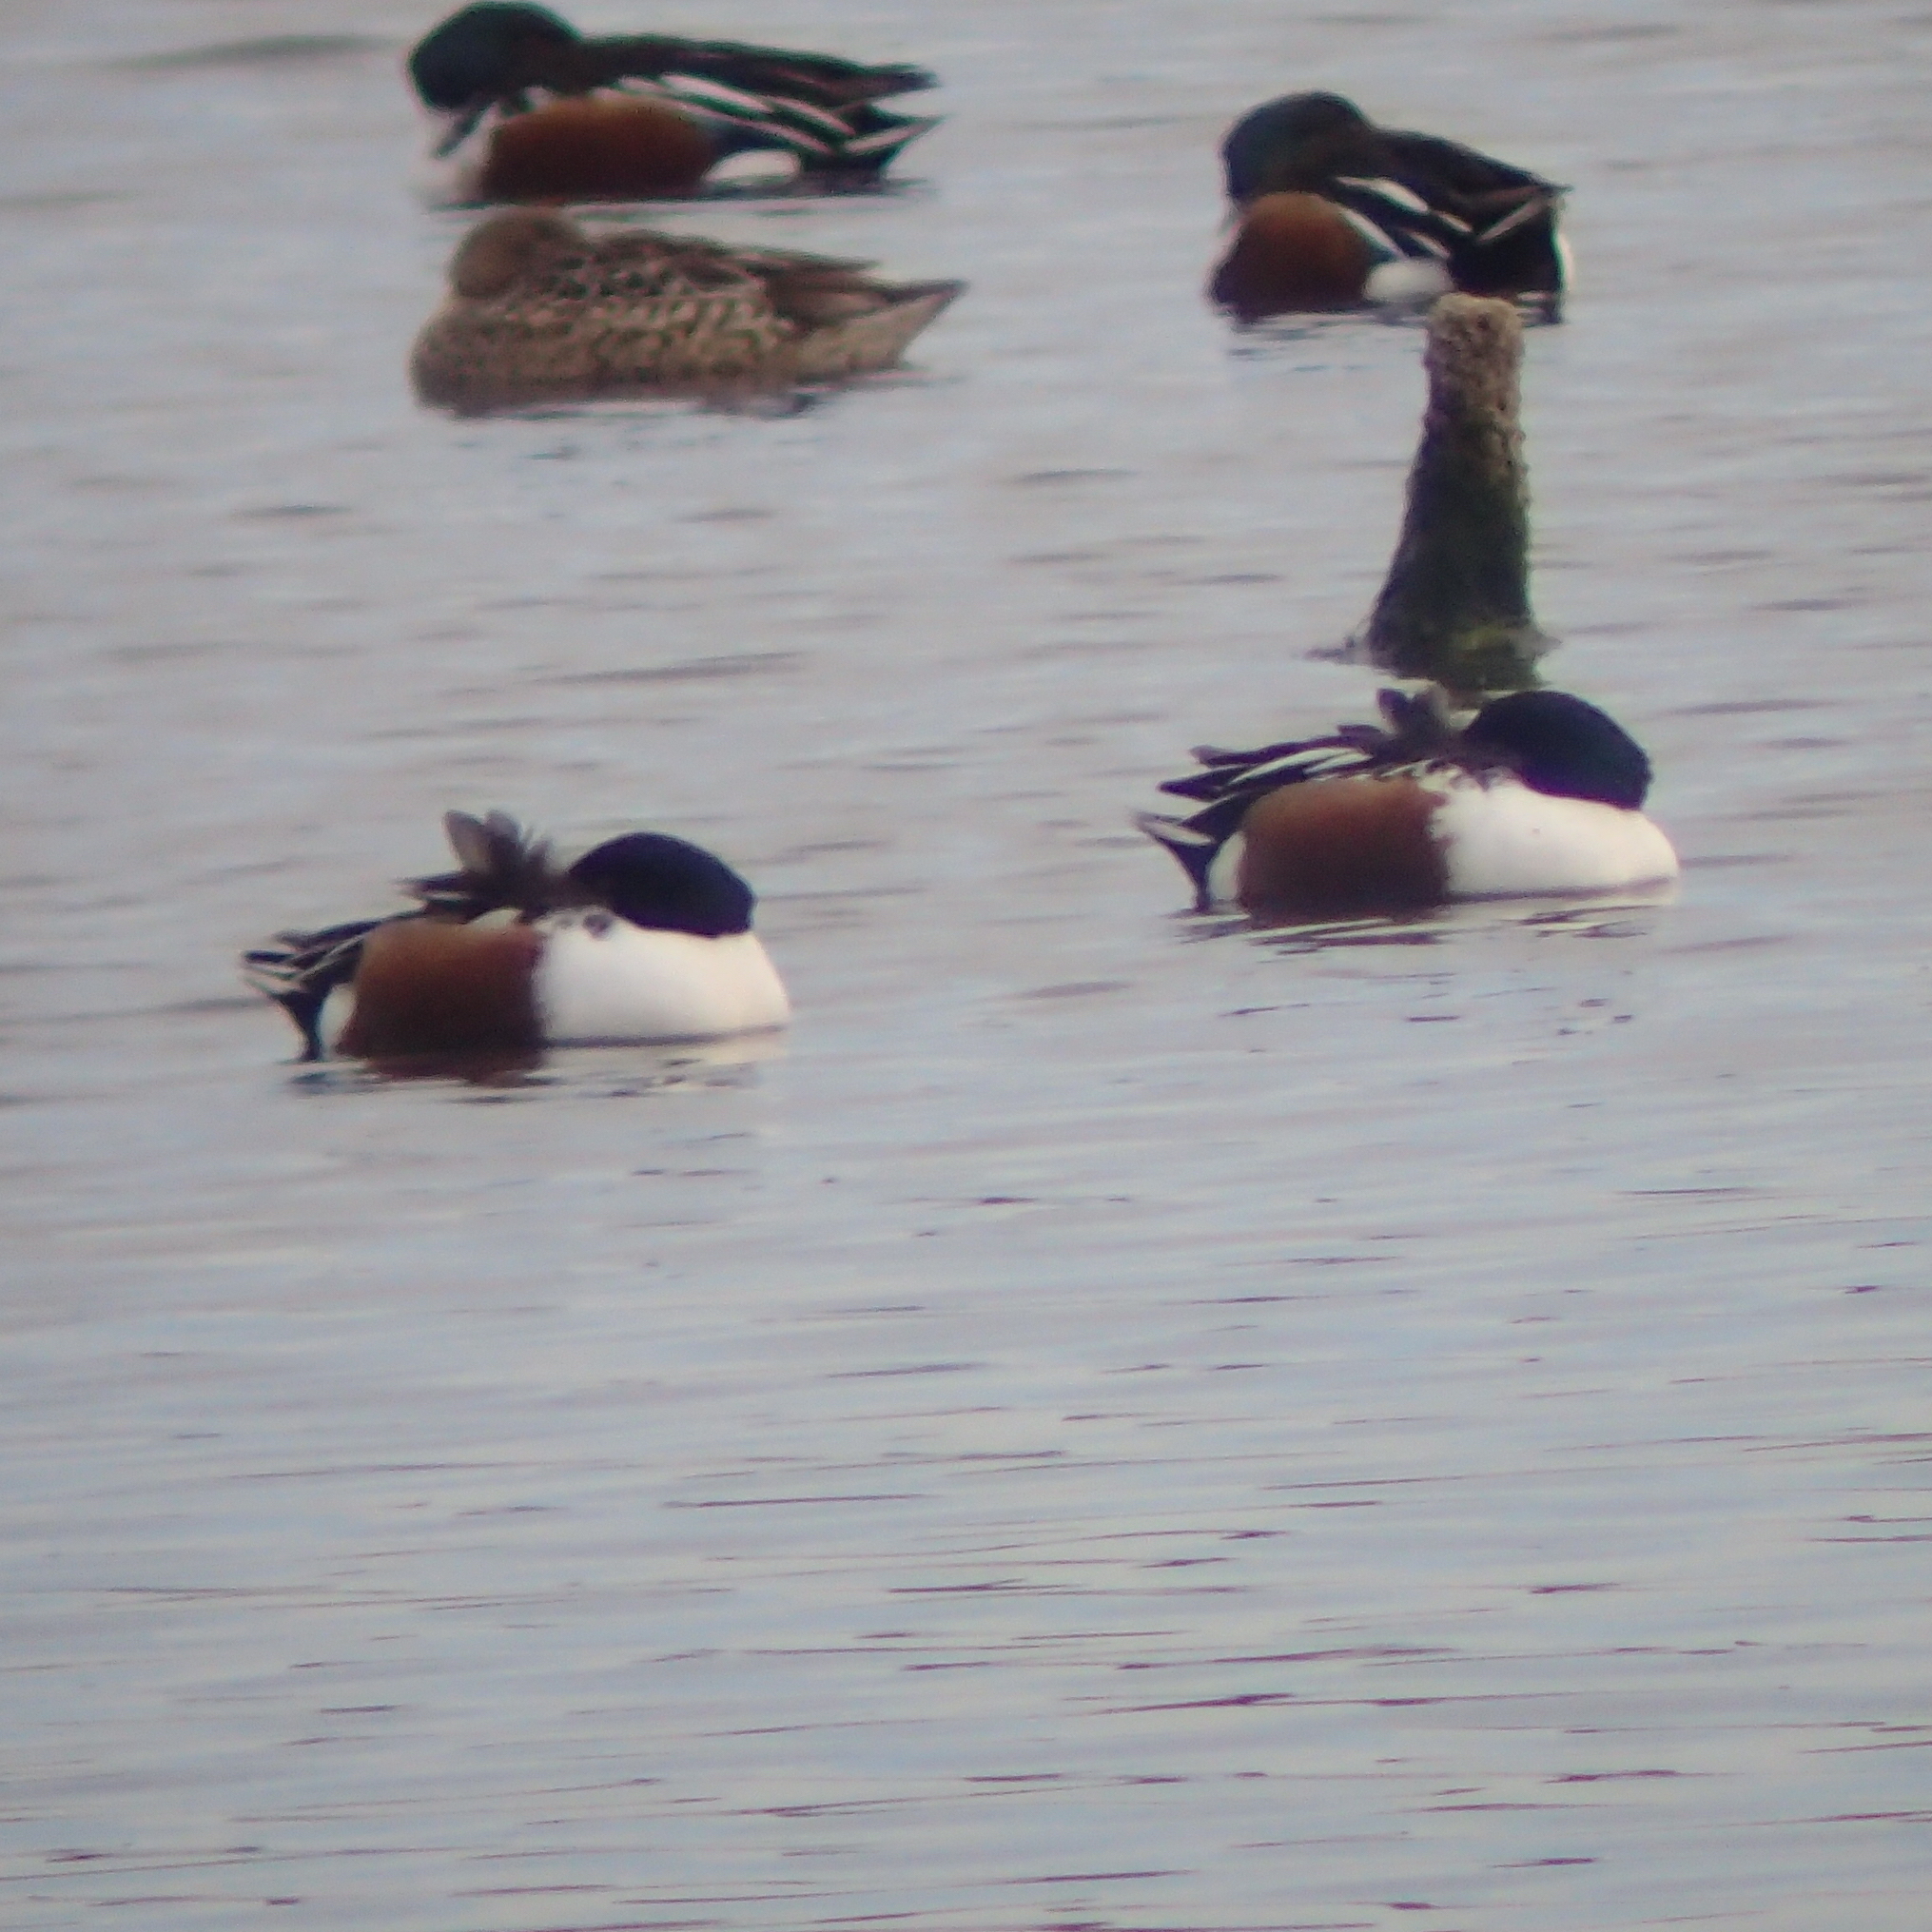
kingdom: Animalia
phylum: Chordata
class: Aves
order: Anseriformes
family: Anatidae
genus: Spatula
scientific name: Spatula clypeata
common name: Northern shoveler
